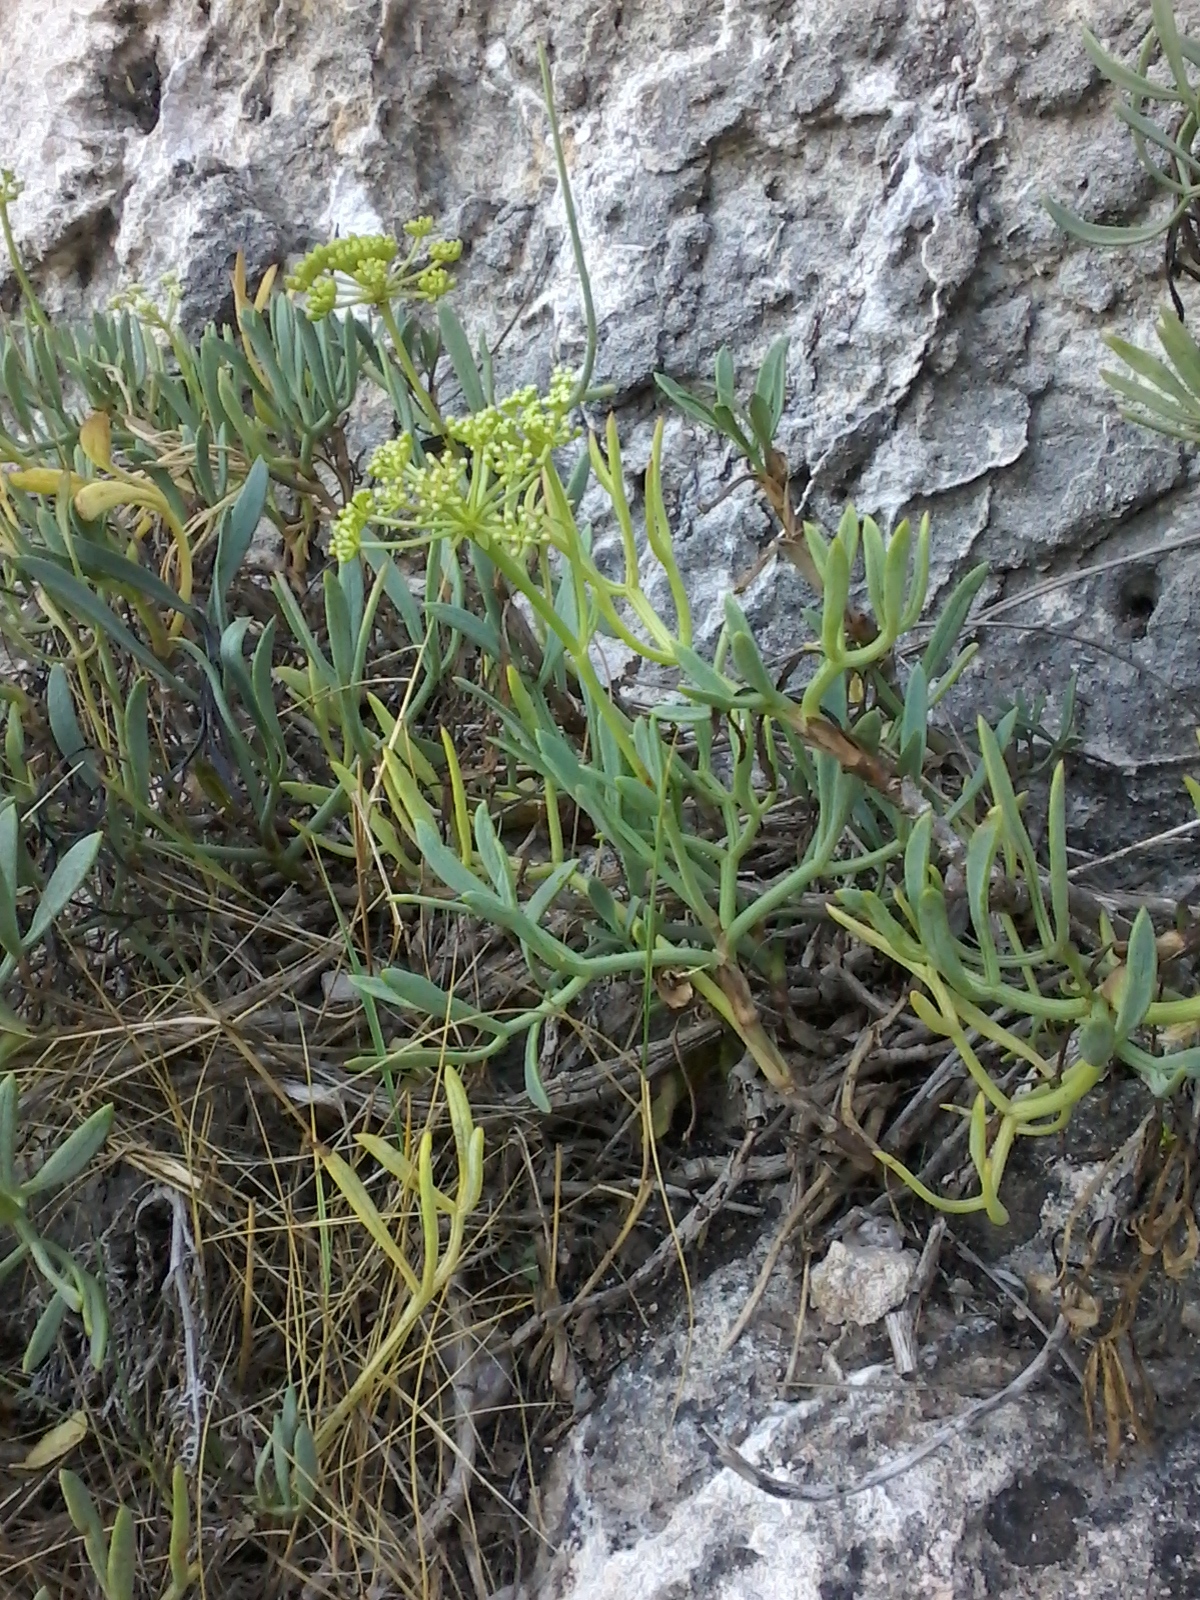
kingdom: Plantae
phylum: Tracheophyta
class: Magnoliopsida
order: Apiales
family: Apiaceae
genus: Crithmum
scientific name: Crithmum maritimum
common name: Rock samphire
